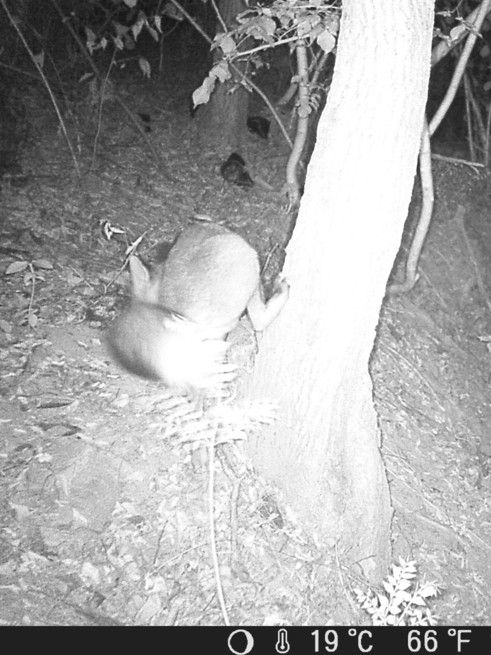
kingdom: Animalia
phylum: Chordata
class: Mammalia
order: Carnivora
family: Canidae
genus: Vulpes
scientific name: Vulpes vulpes
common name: Red fox
